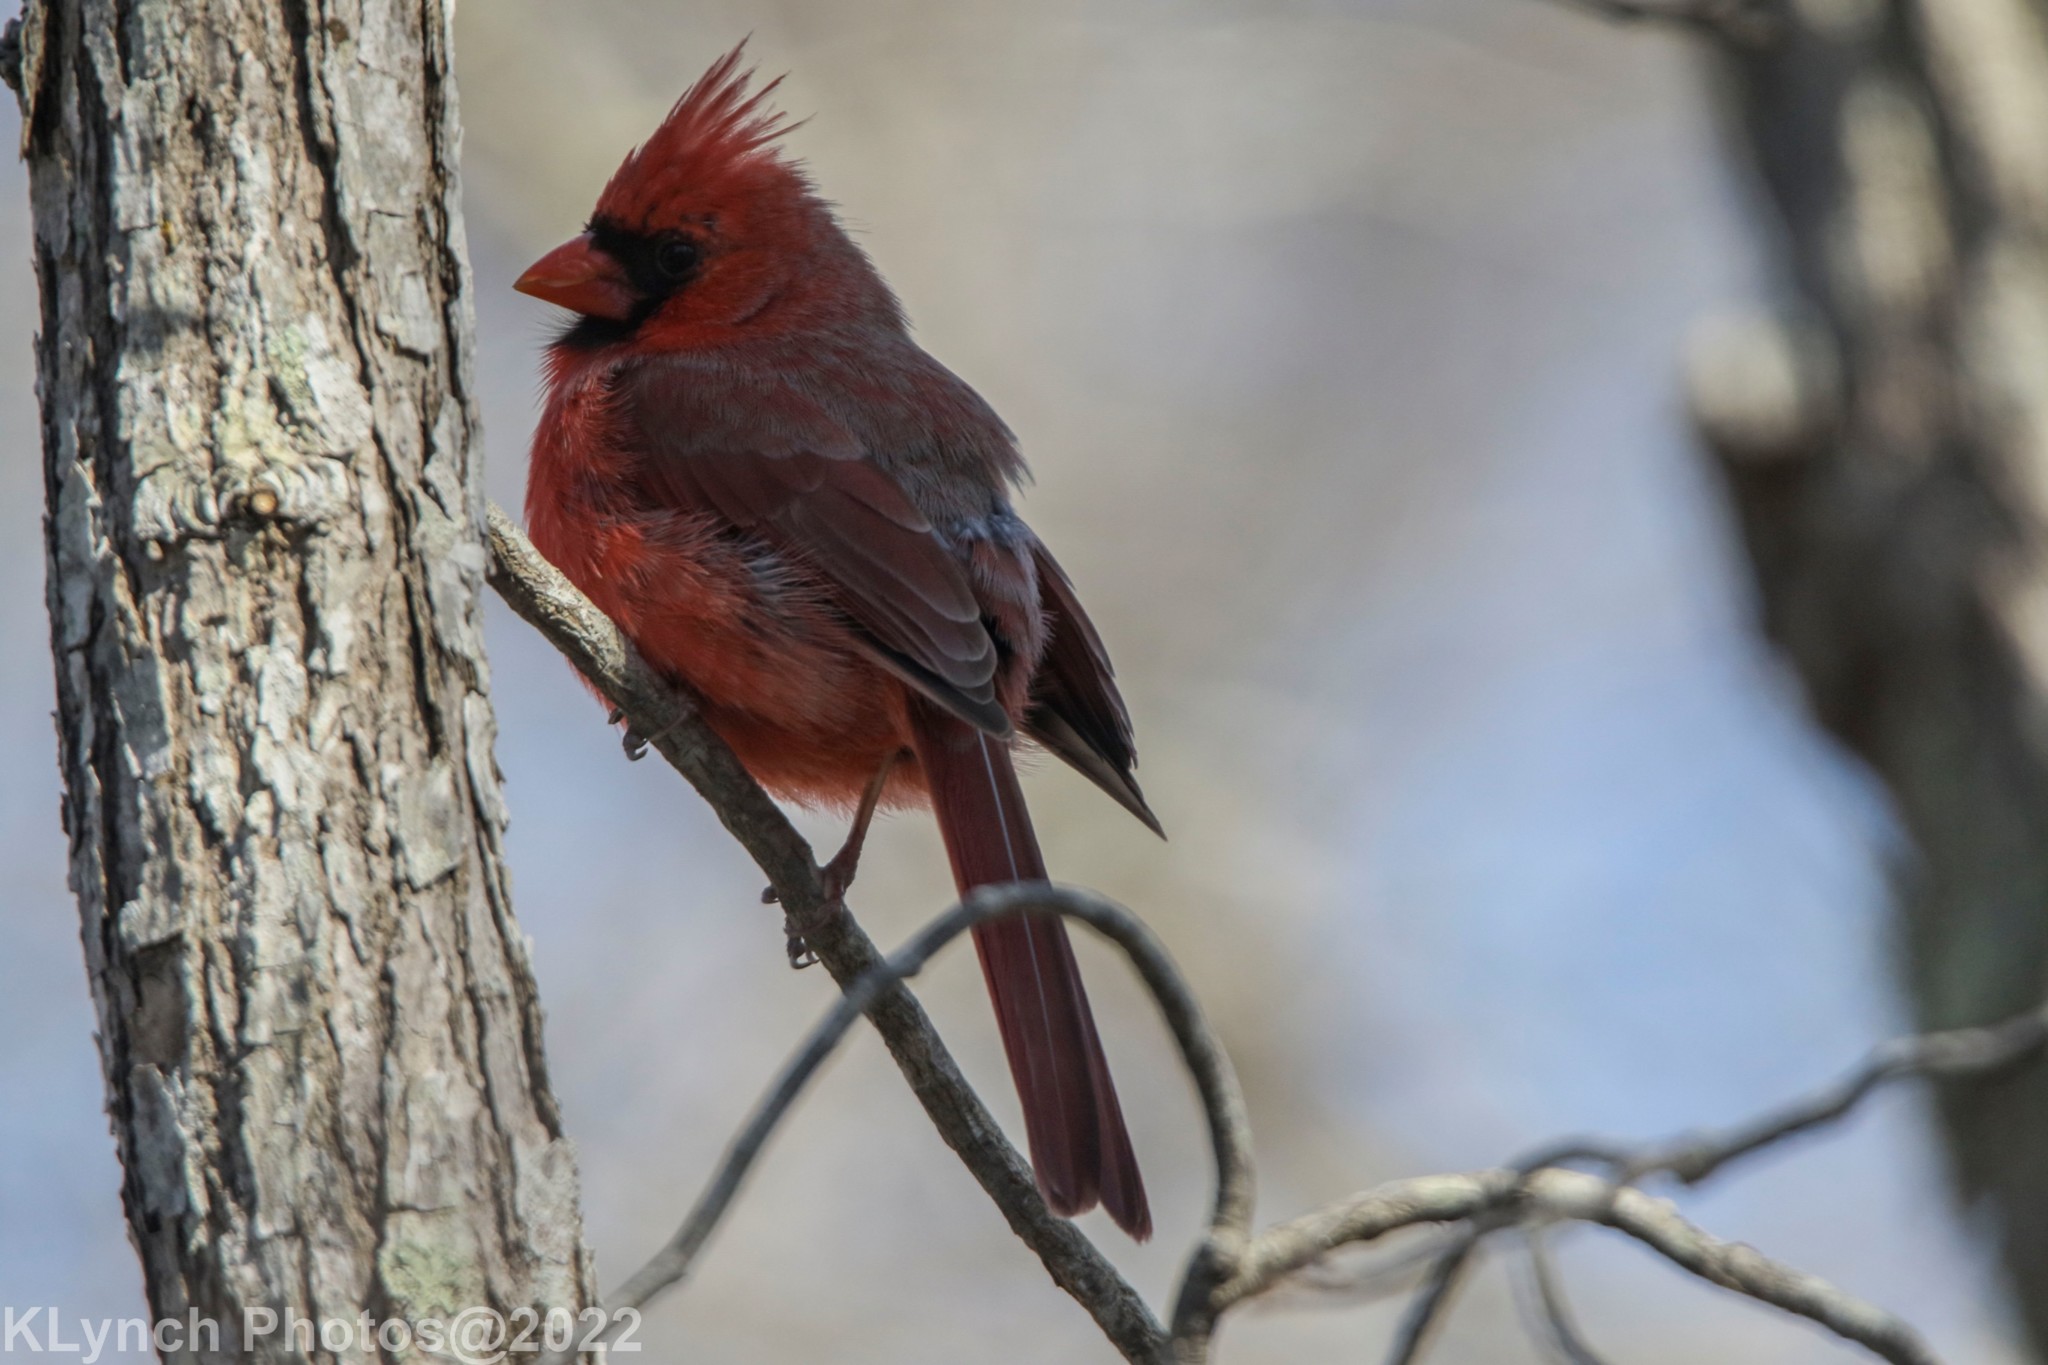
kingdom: Animalia
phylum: Chordata
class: Aves
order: Passeriformes
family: Cardinalidae
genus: Cardinalis
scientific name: Cardinalis cardinalis
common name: Northern cardinal
